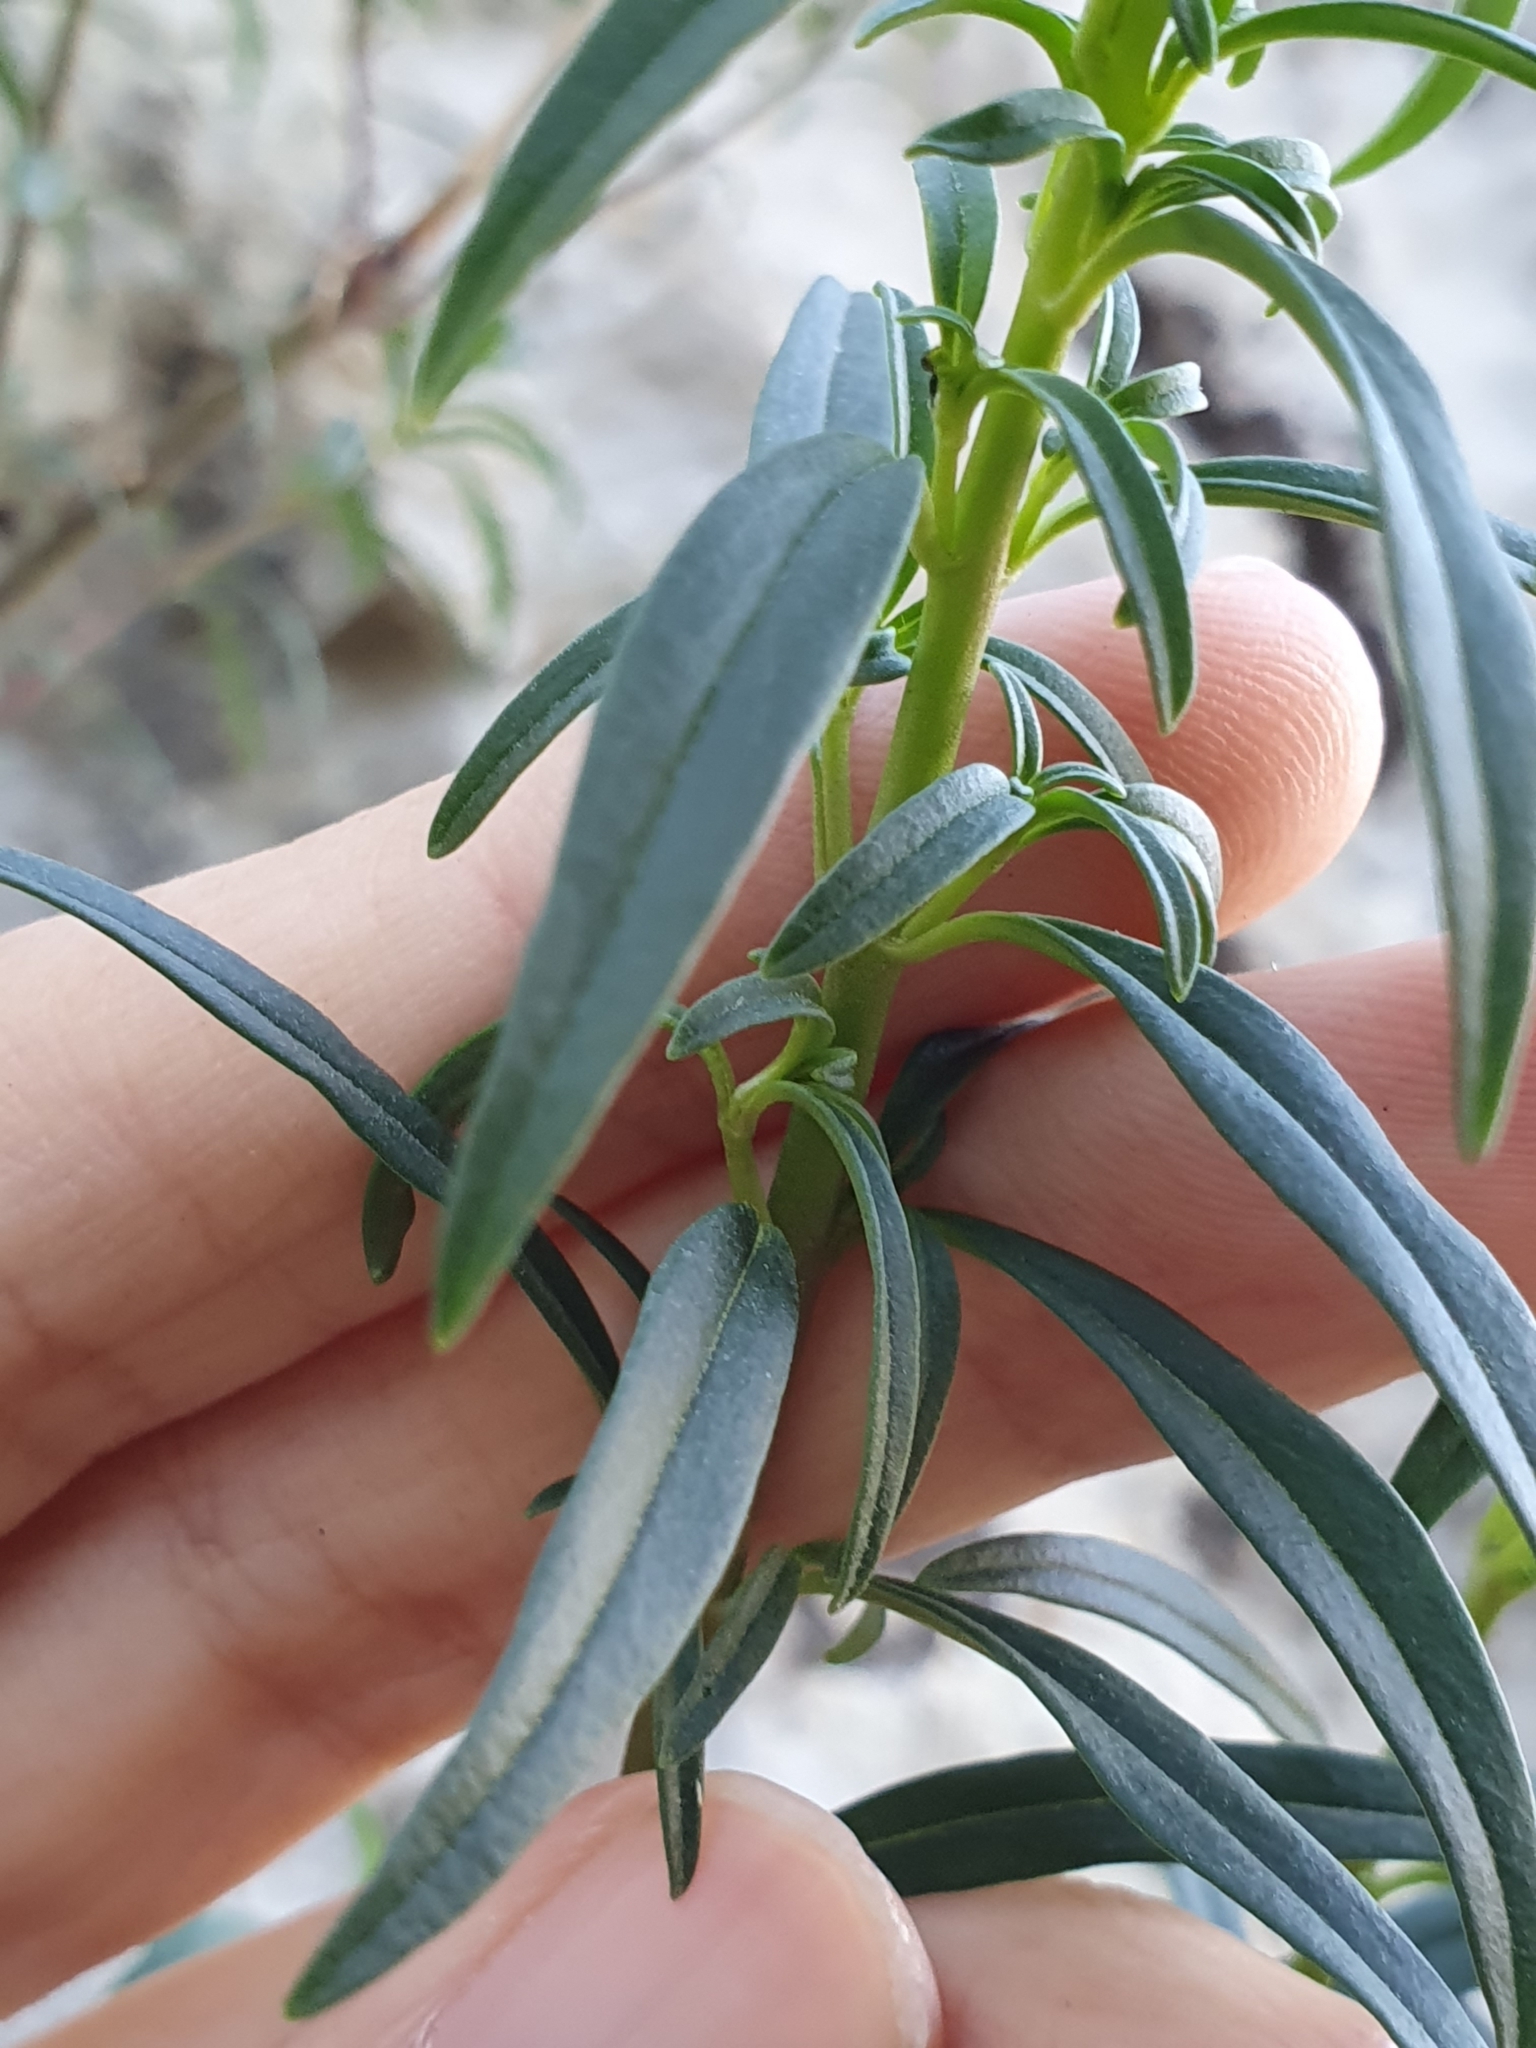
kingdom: Plantae
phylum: Tracheophyta
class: Magnoliopsida
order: Lamiales
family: Plantaginaceae
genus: Antirrhinum
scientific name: Antirrhinum tortuosum
